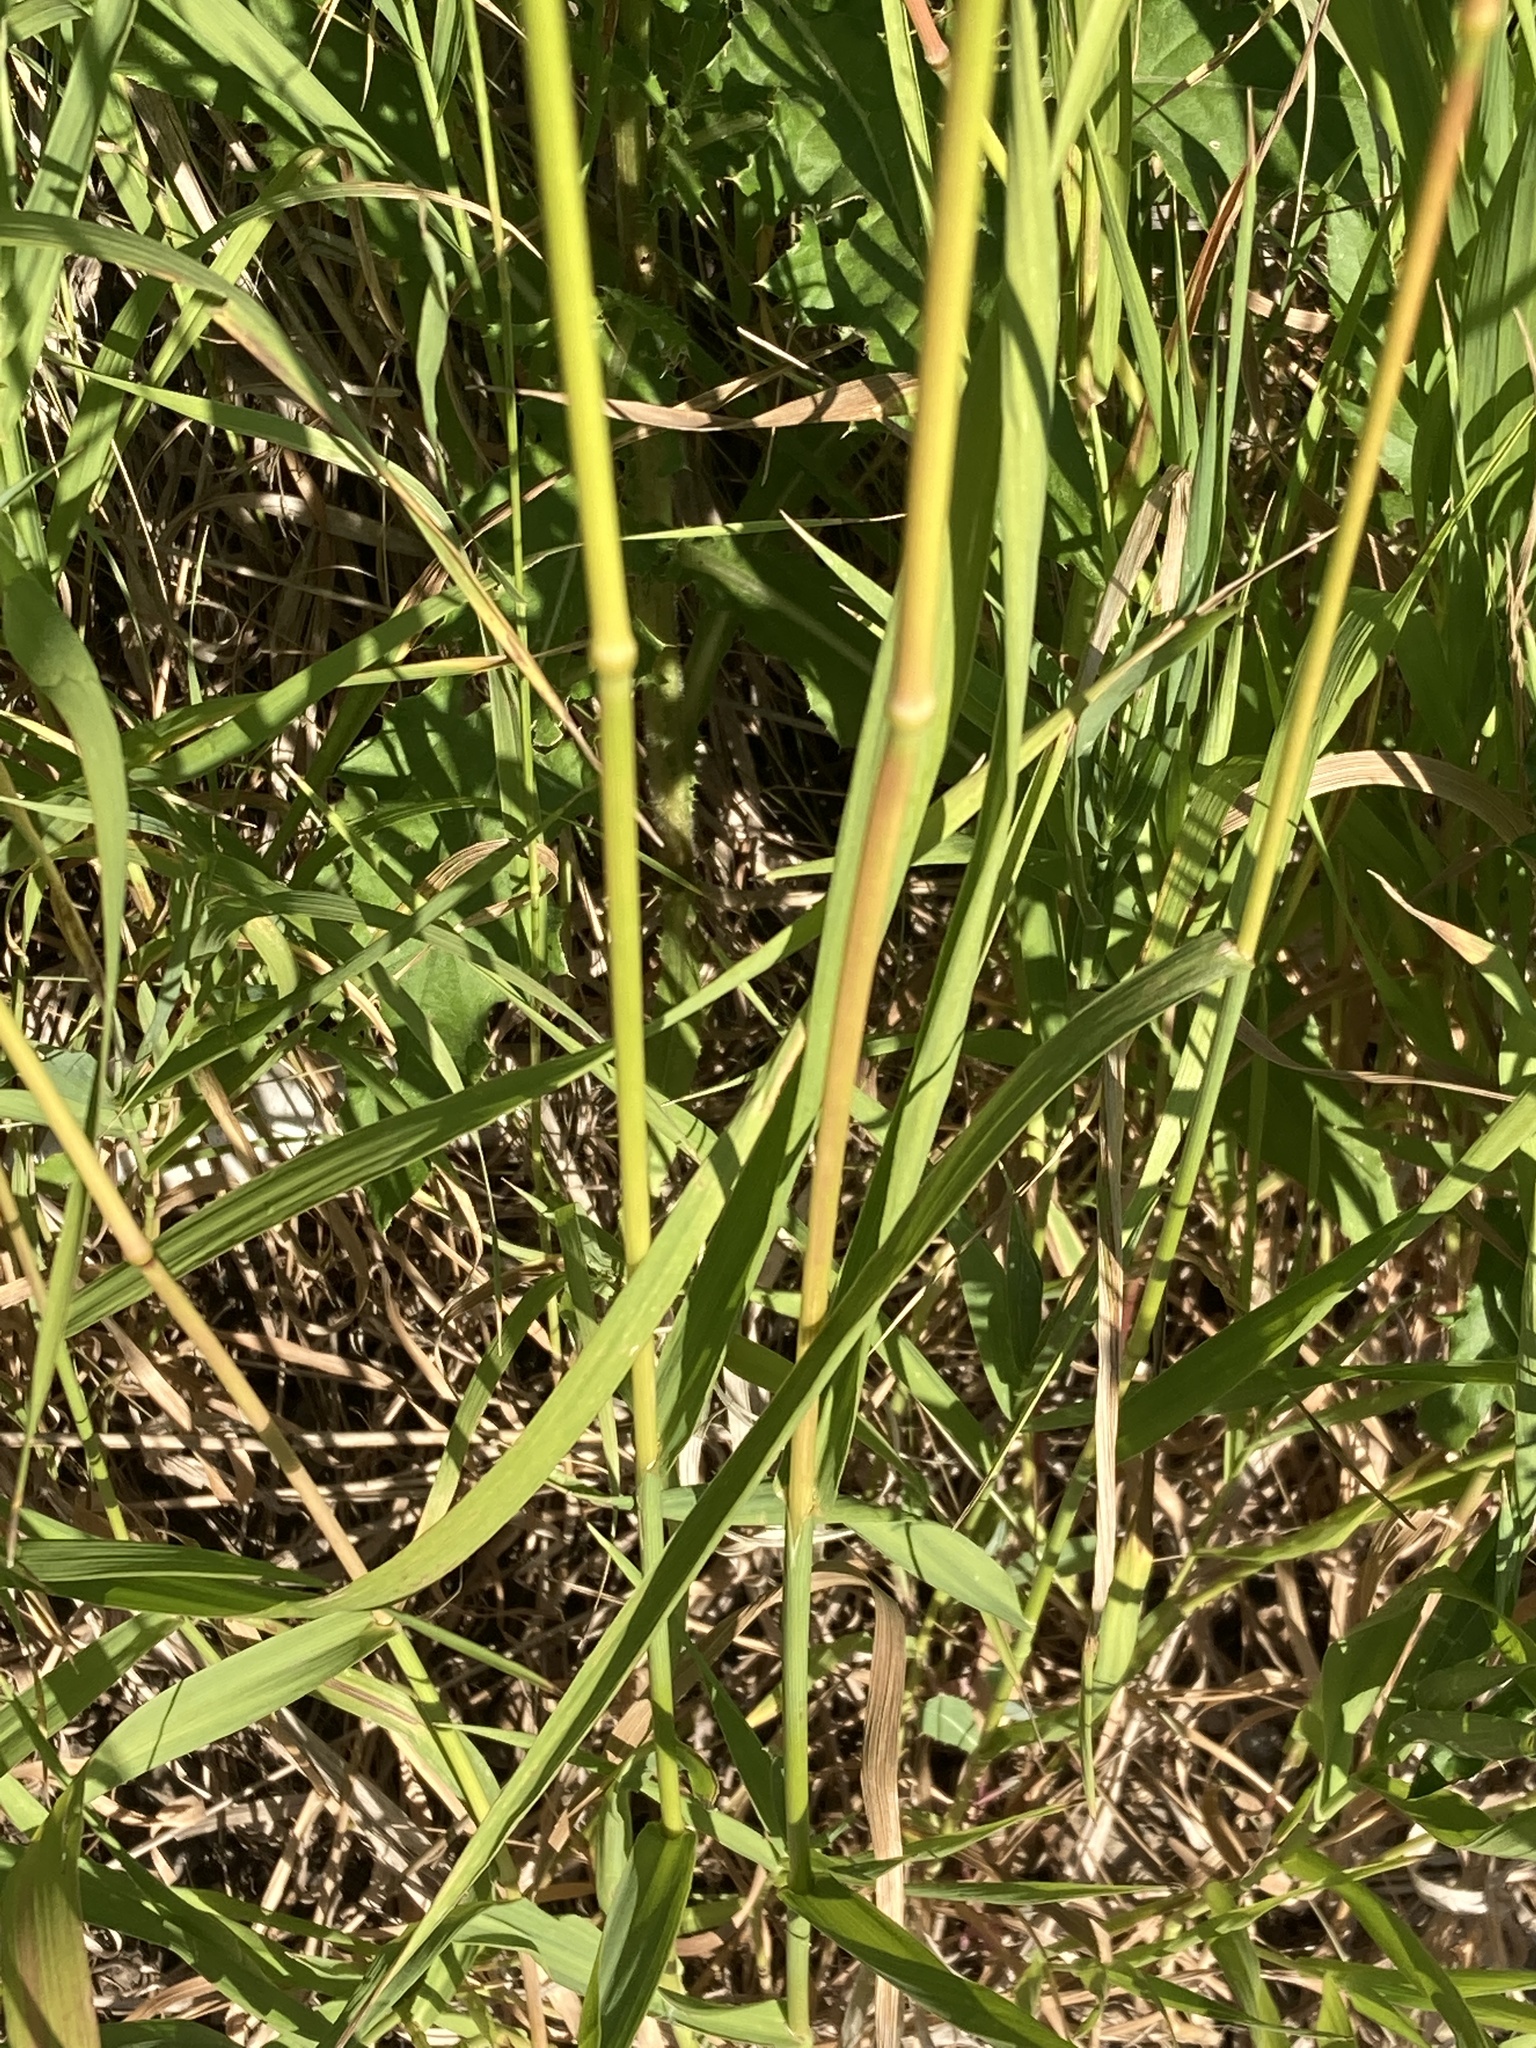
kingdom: Plantae
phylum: Tracheophyta
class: Liliopsida
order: Poales
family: Poaceae
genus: Bromus
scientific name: Bromus inermis
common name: Smooth brome
